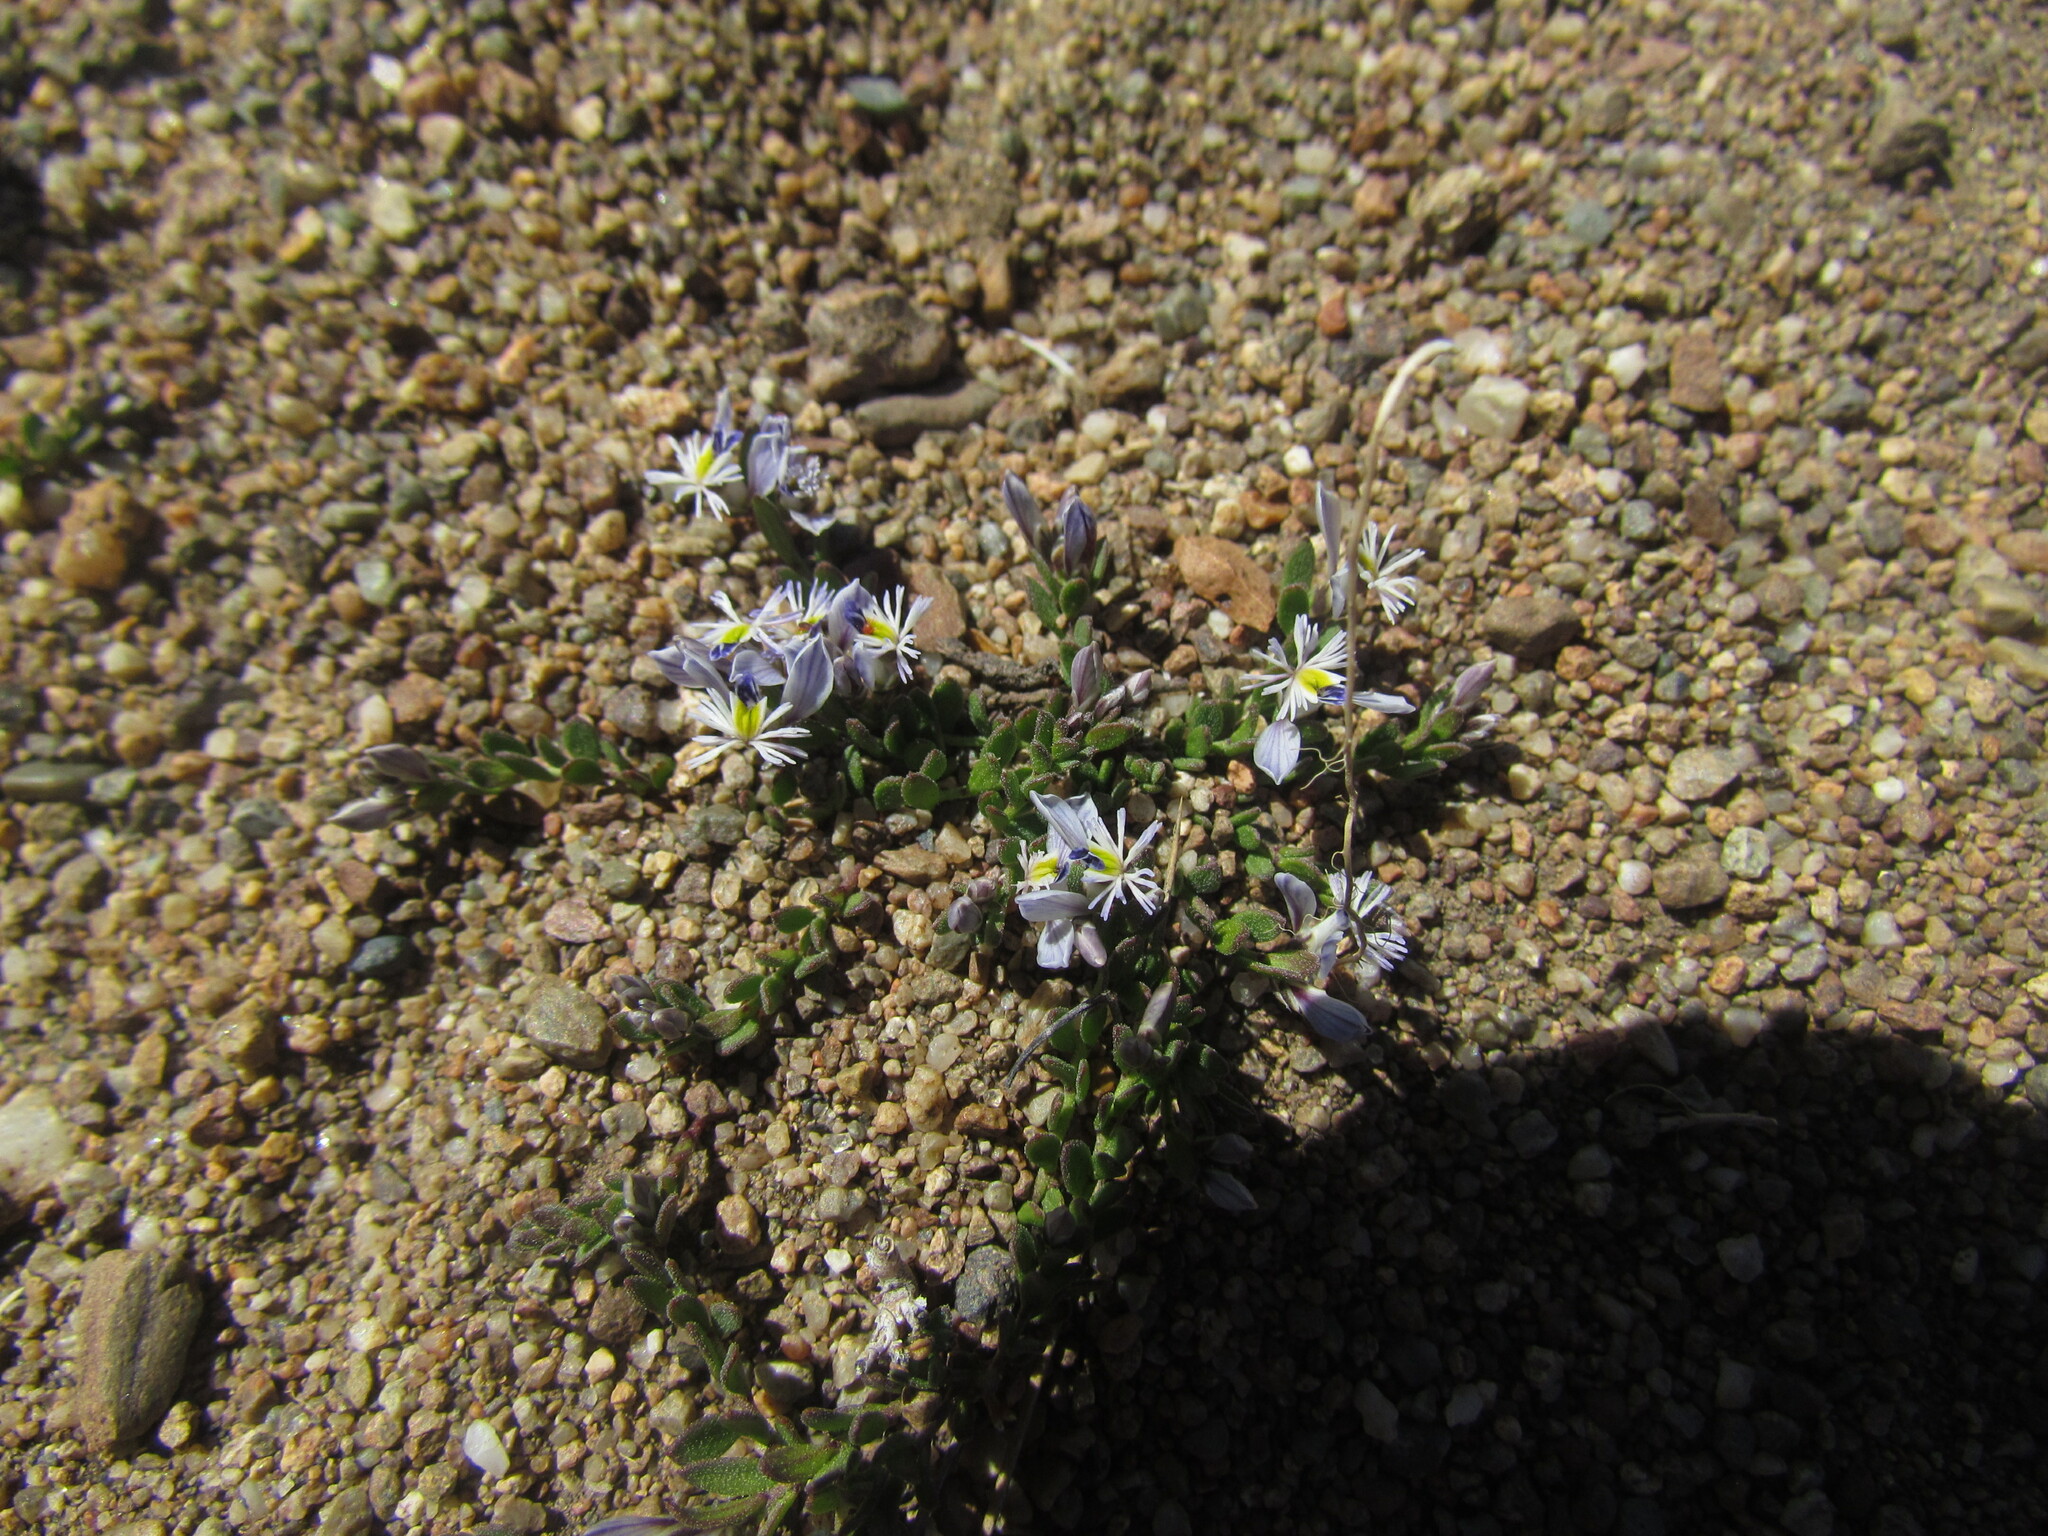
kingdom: Plantae
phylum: Tracheophyta
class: Magnoliopsida
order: Fabales
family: Polygalaceae
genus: Acanthocladus
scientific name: Acanthocladus tehuelchum
